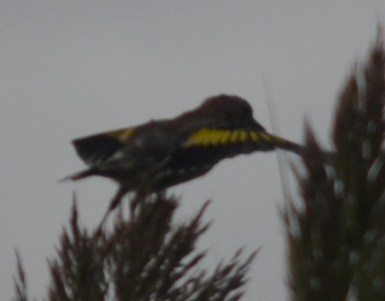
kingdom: Animalia
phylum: Chordata
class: Aves
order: Passeriformes
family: Fringillidae
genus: Carduelis
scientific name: Carduelis carduelis
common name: European goldfinch
